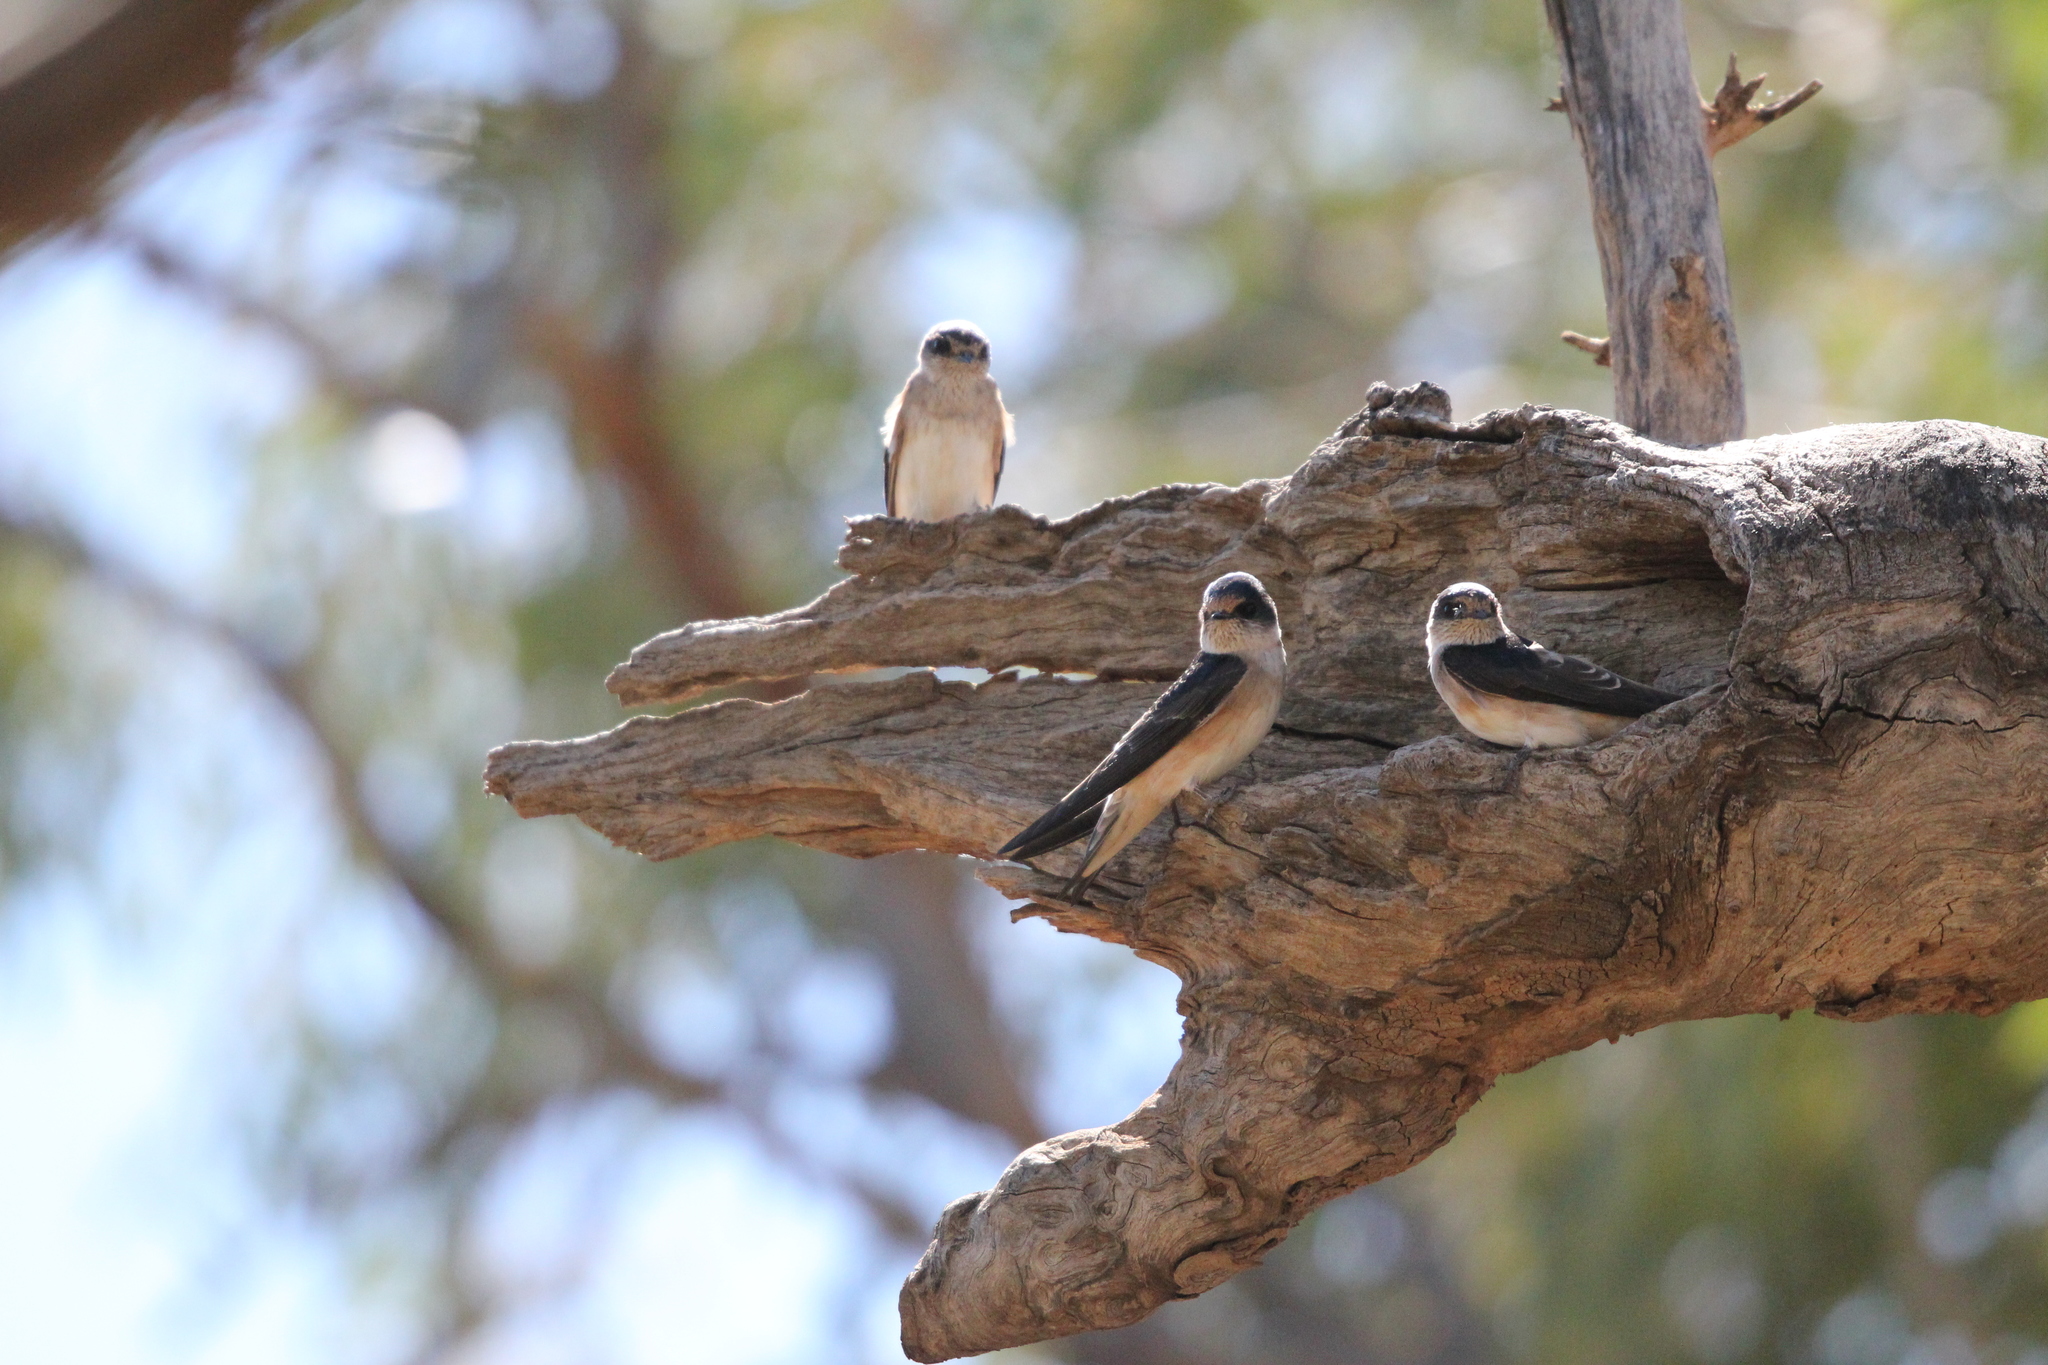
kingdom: Animalia
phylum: Chordata
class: Aves
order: Passeriformes
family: Hirundinidae
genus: Petrochelidon
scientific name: Petrochelidon nigricans
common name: Tree martin
